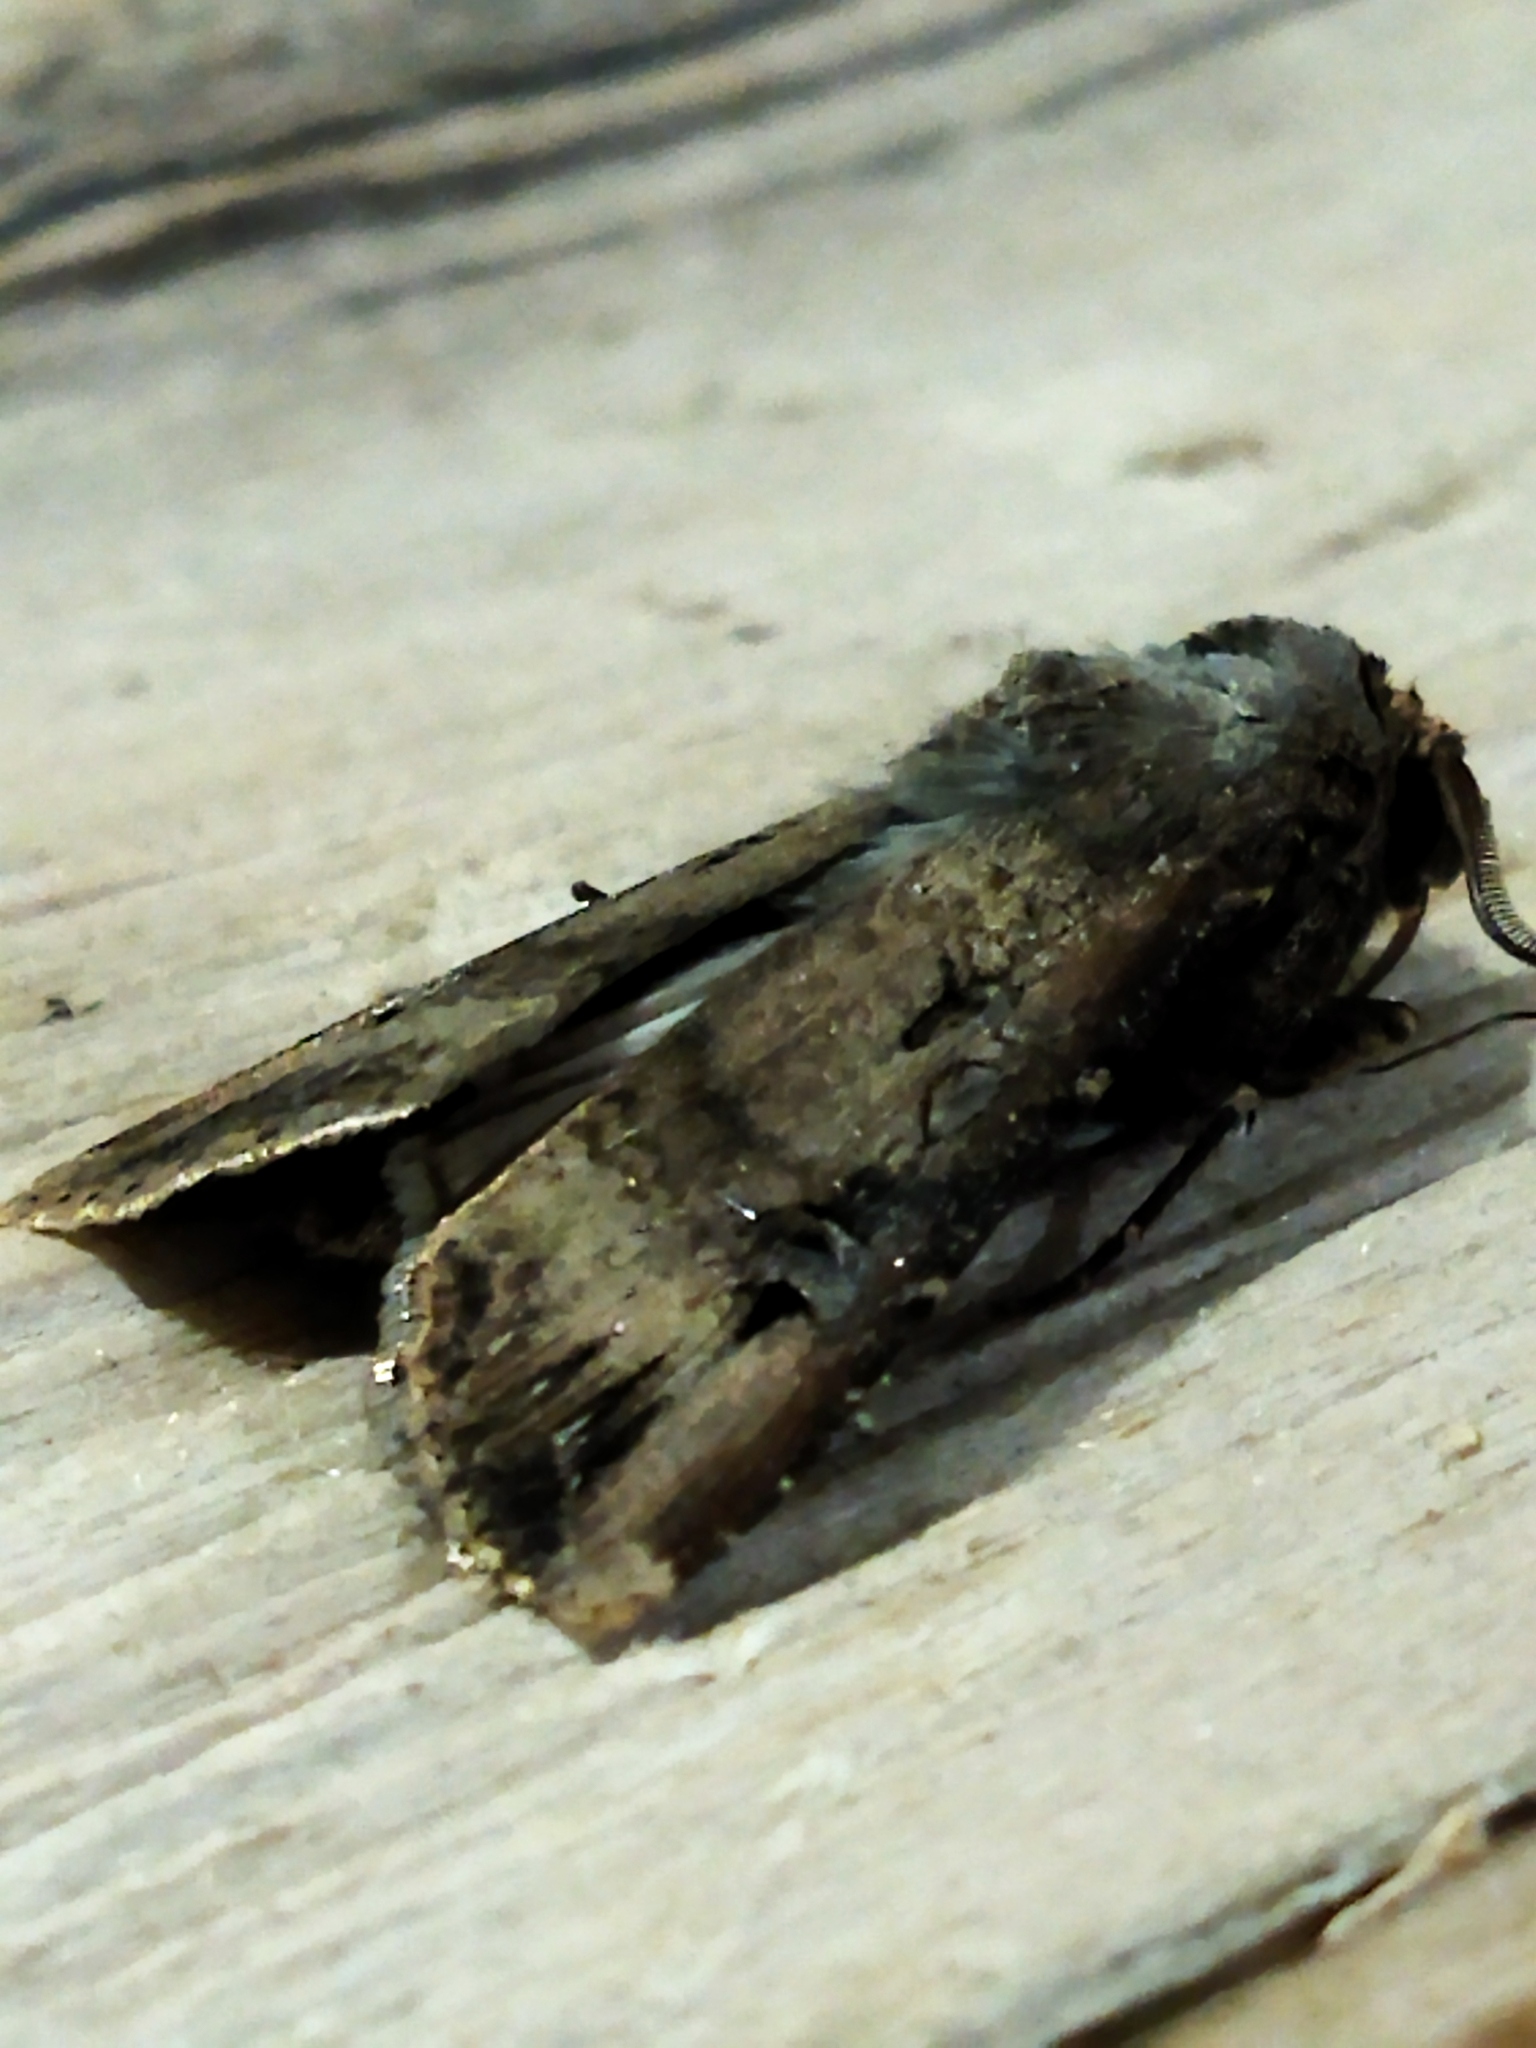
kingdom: Animalia
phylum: Arthropoda
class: Insecta
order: Lepidoptera
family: Noctuidae
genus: Agrotis
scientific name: Agrotis ipsilon
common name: Dark sword-grass
